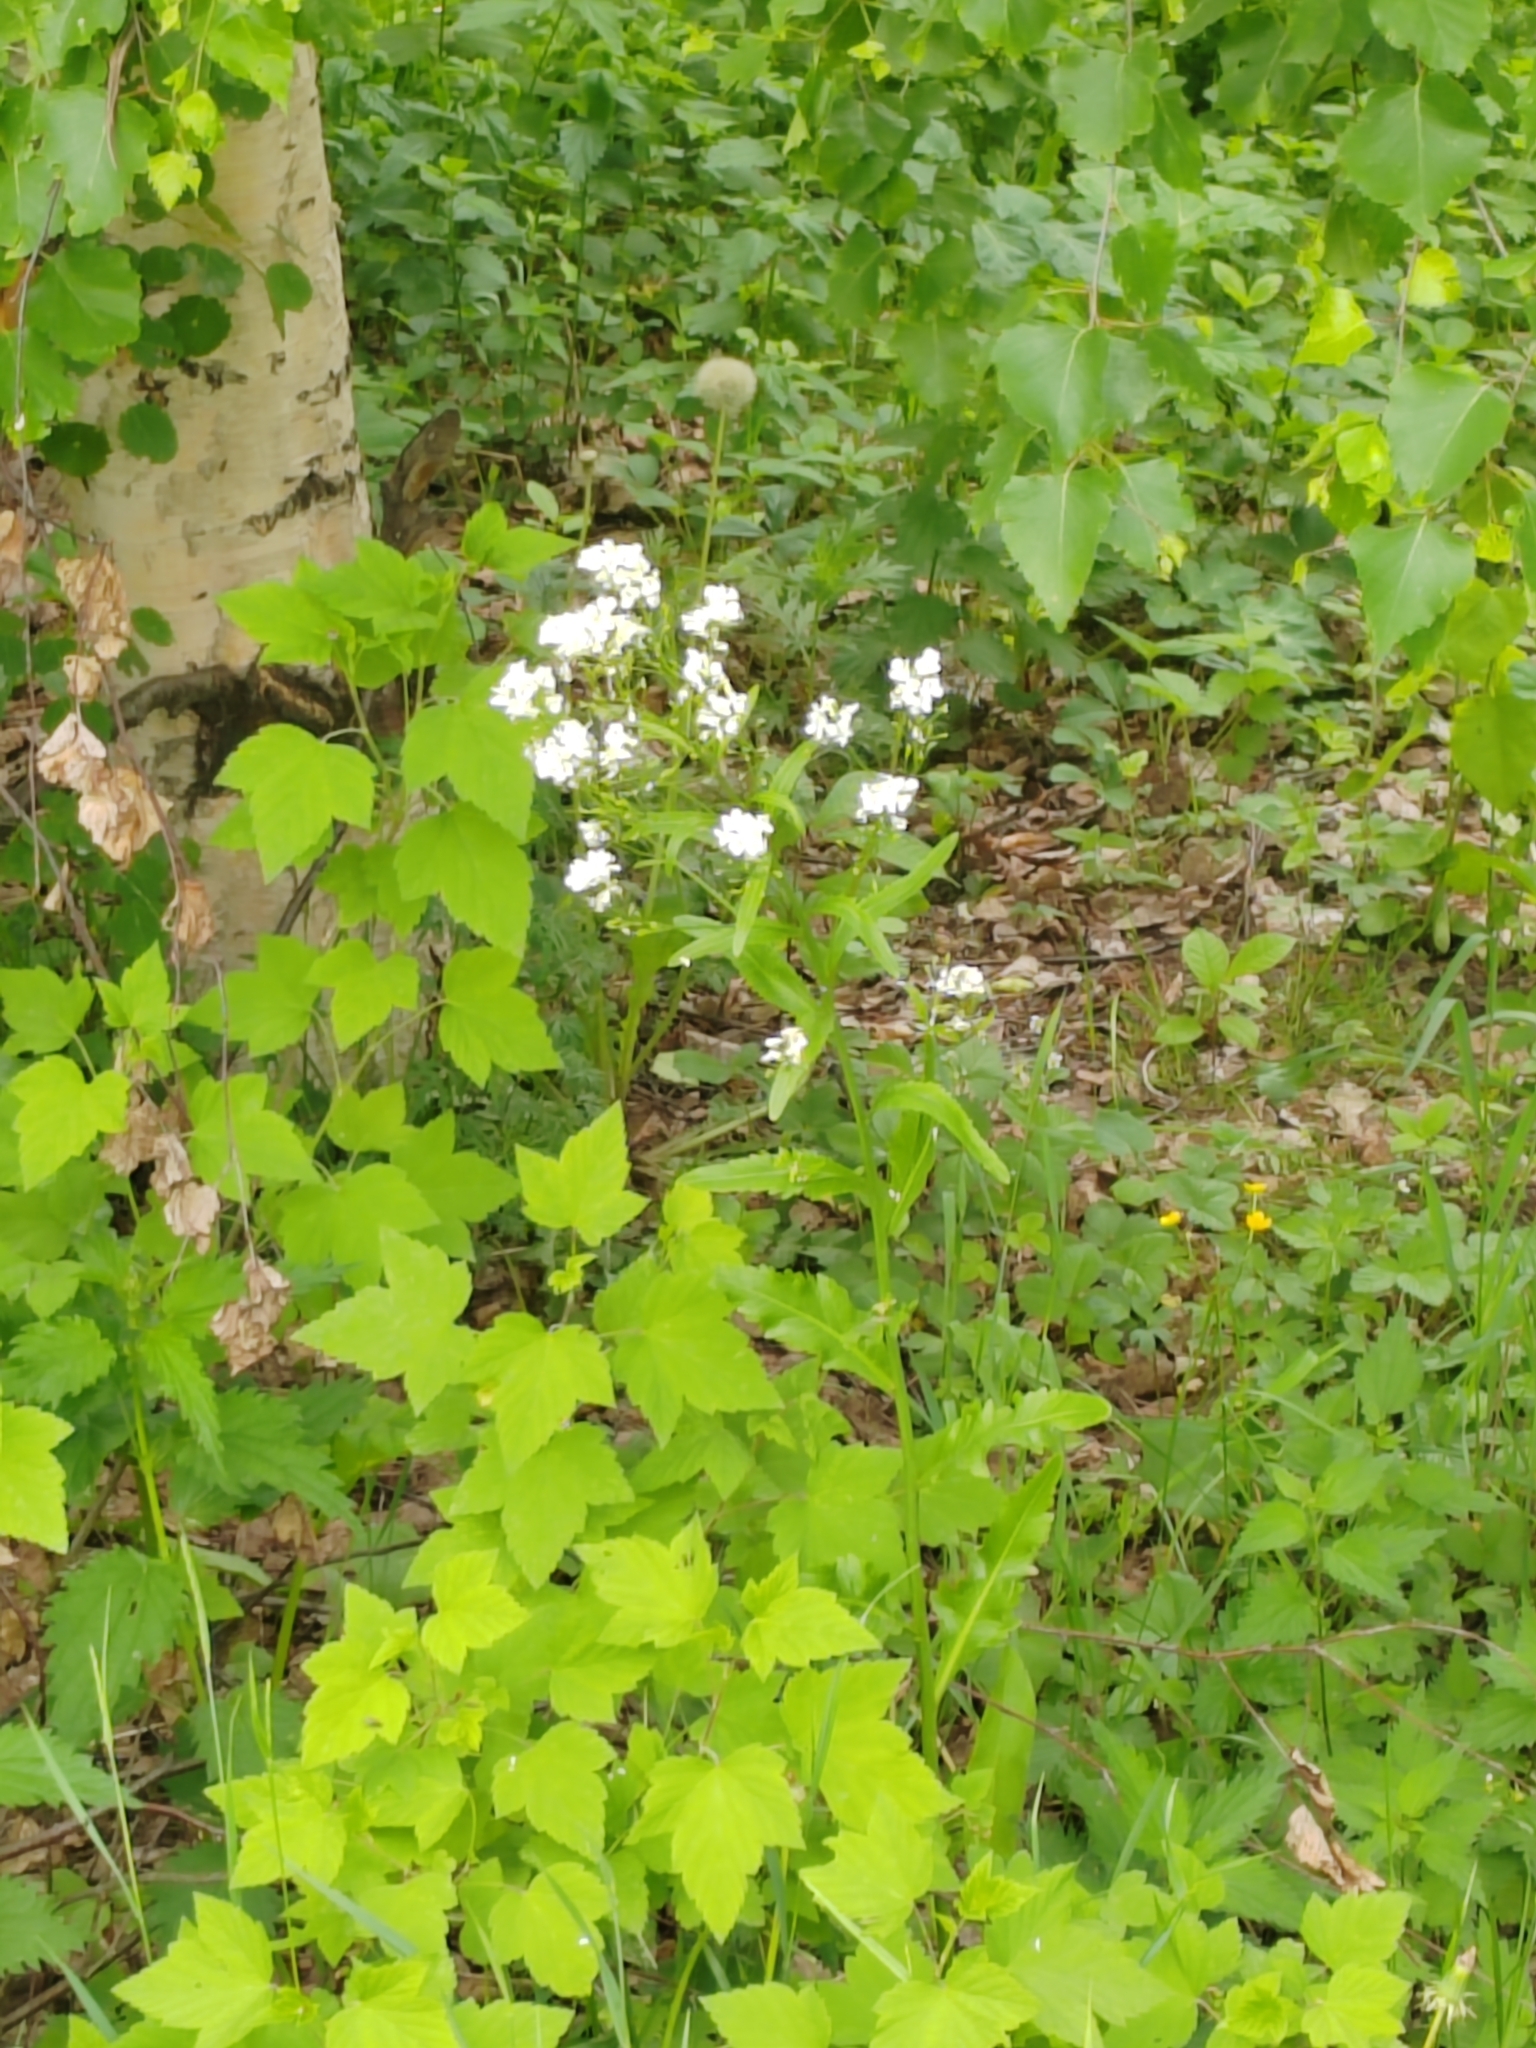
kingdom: Plantae
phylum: Tracheophyta
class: Magnoliopsida
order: Brassicales
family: Brassicaceae
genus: Armoracia
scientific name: Armoracia rusticana
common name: Horseradish
